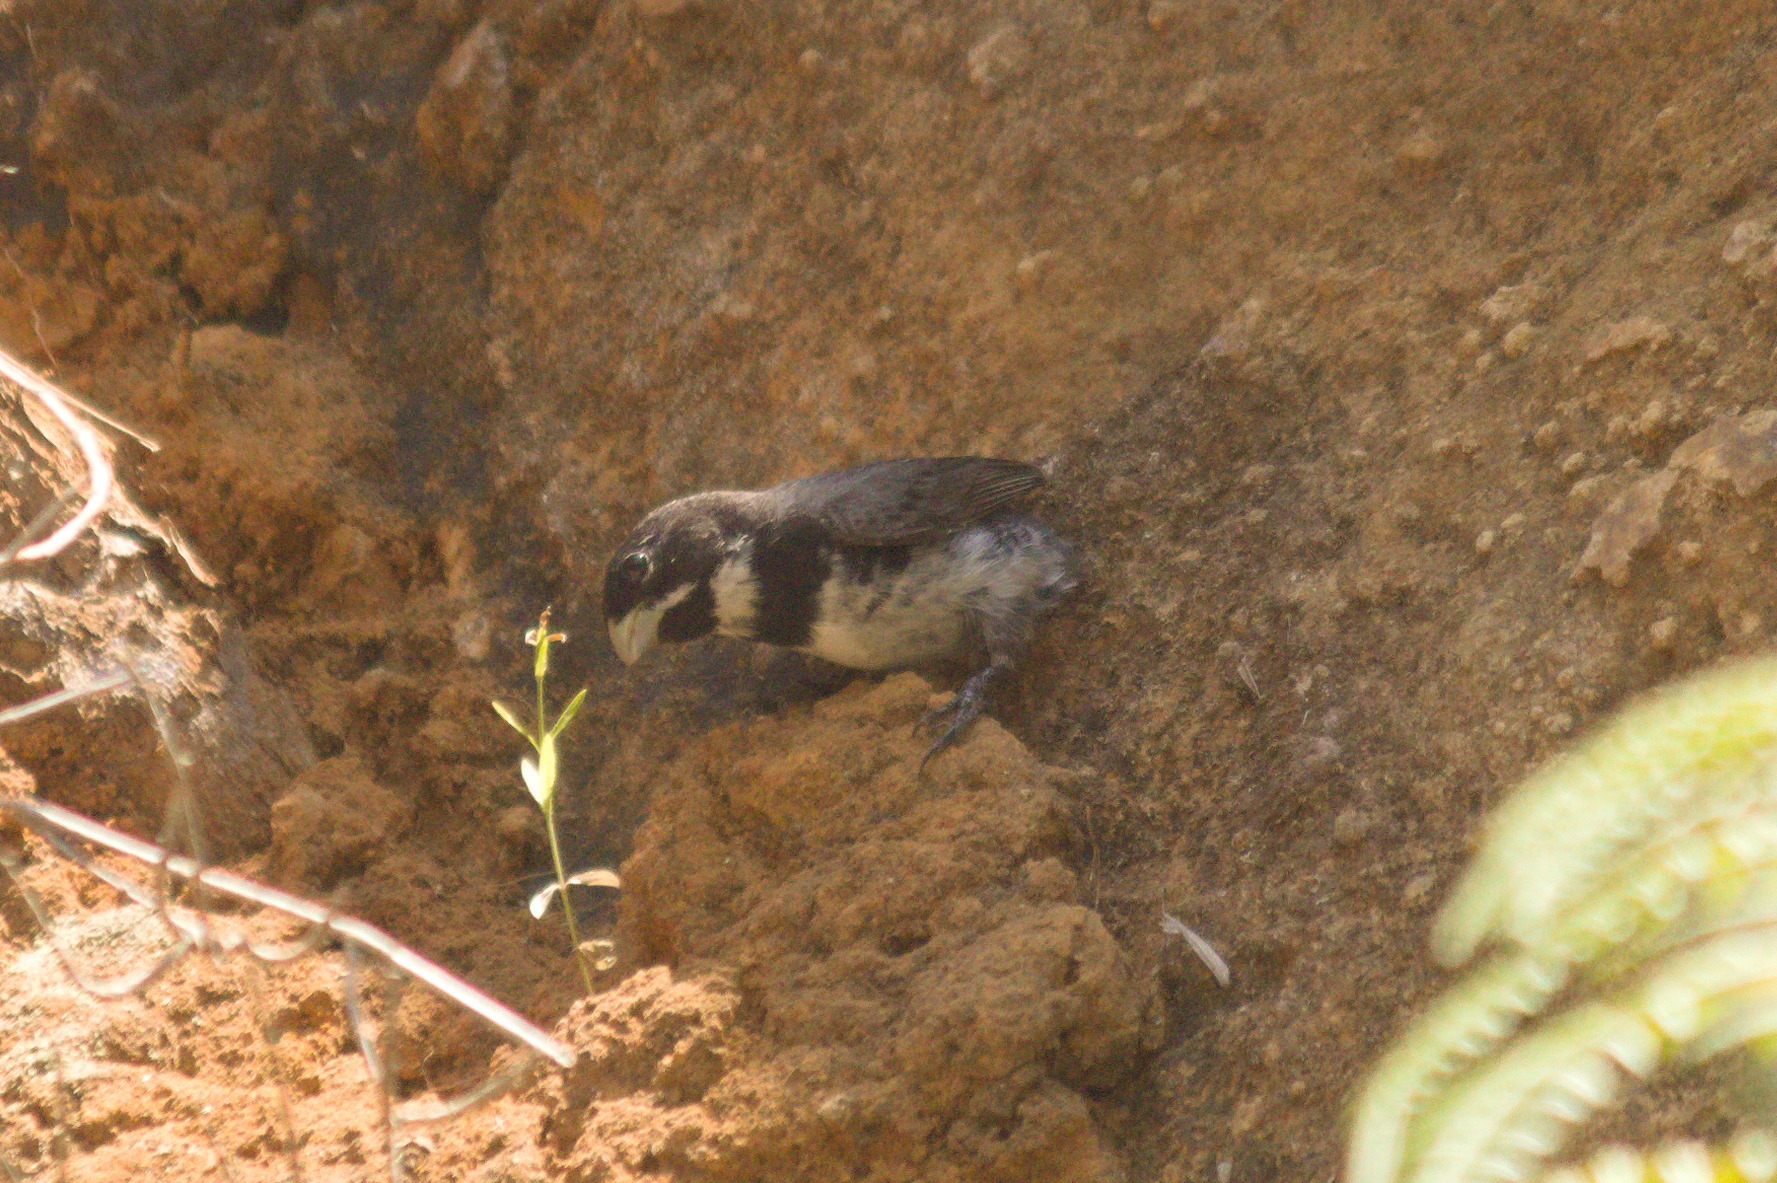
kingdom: Animalia
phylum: Chordata
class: Aves
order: Passeriformes
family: Thraupidae
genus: Sporophila
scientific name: Sporophila caerulescens
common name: Double-collared seedeater
